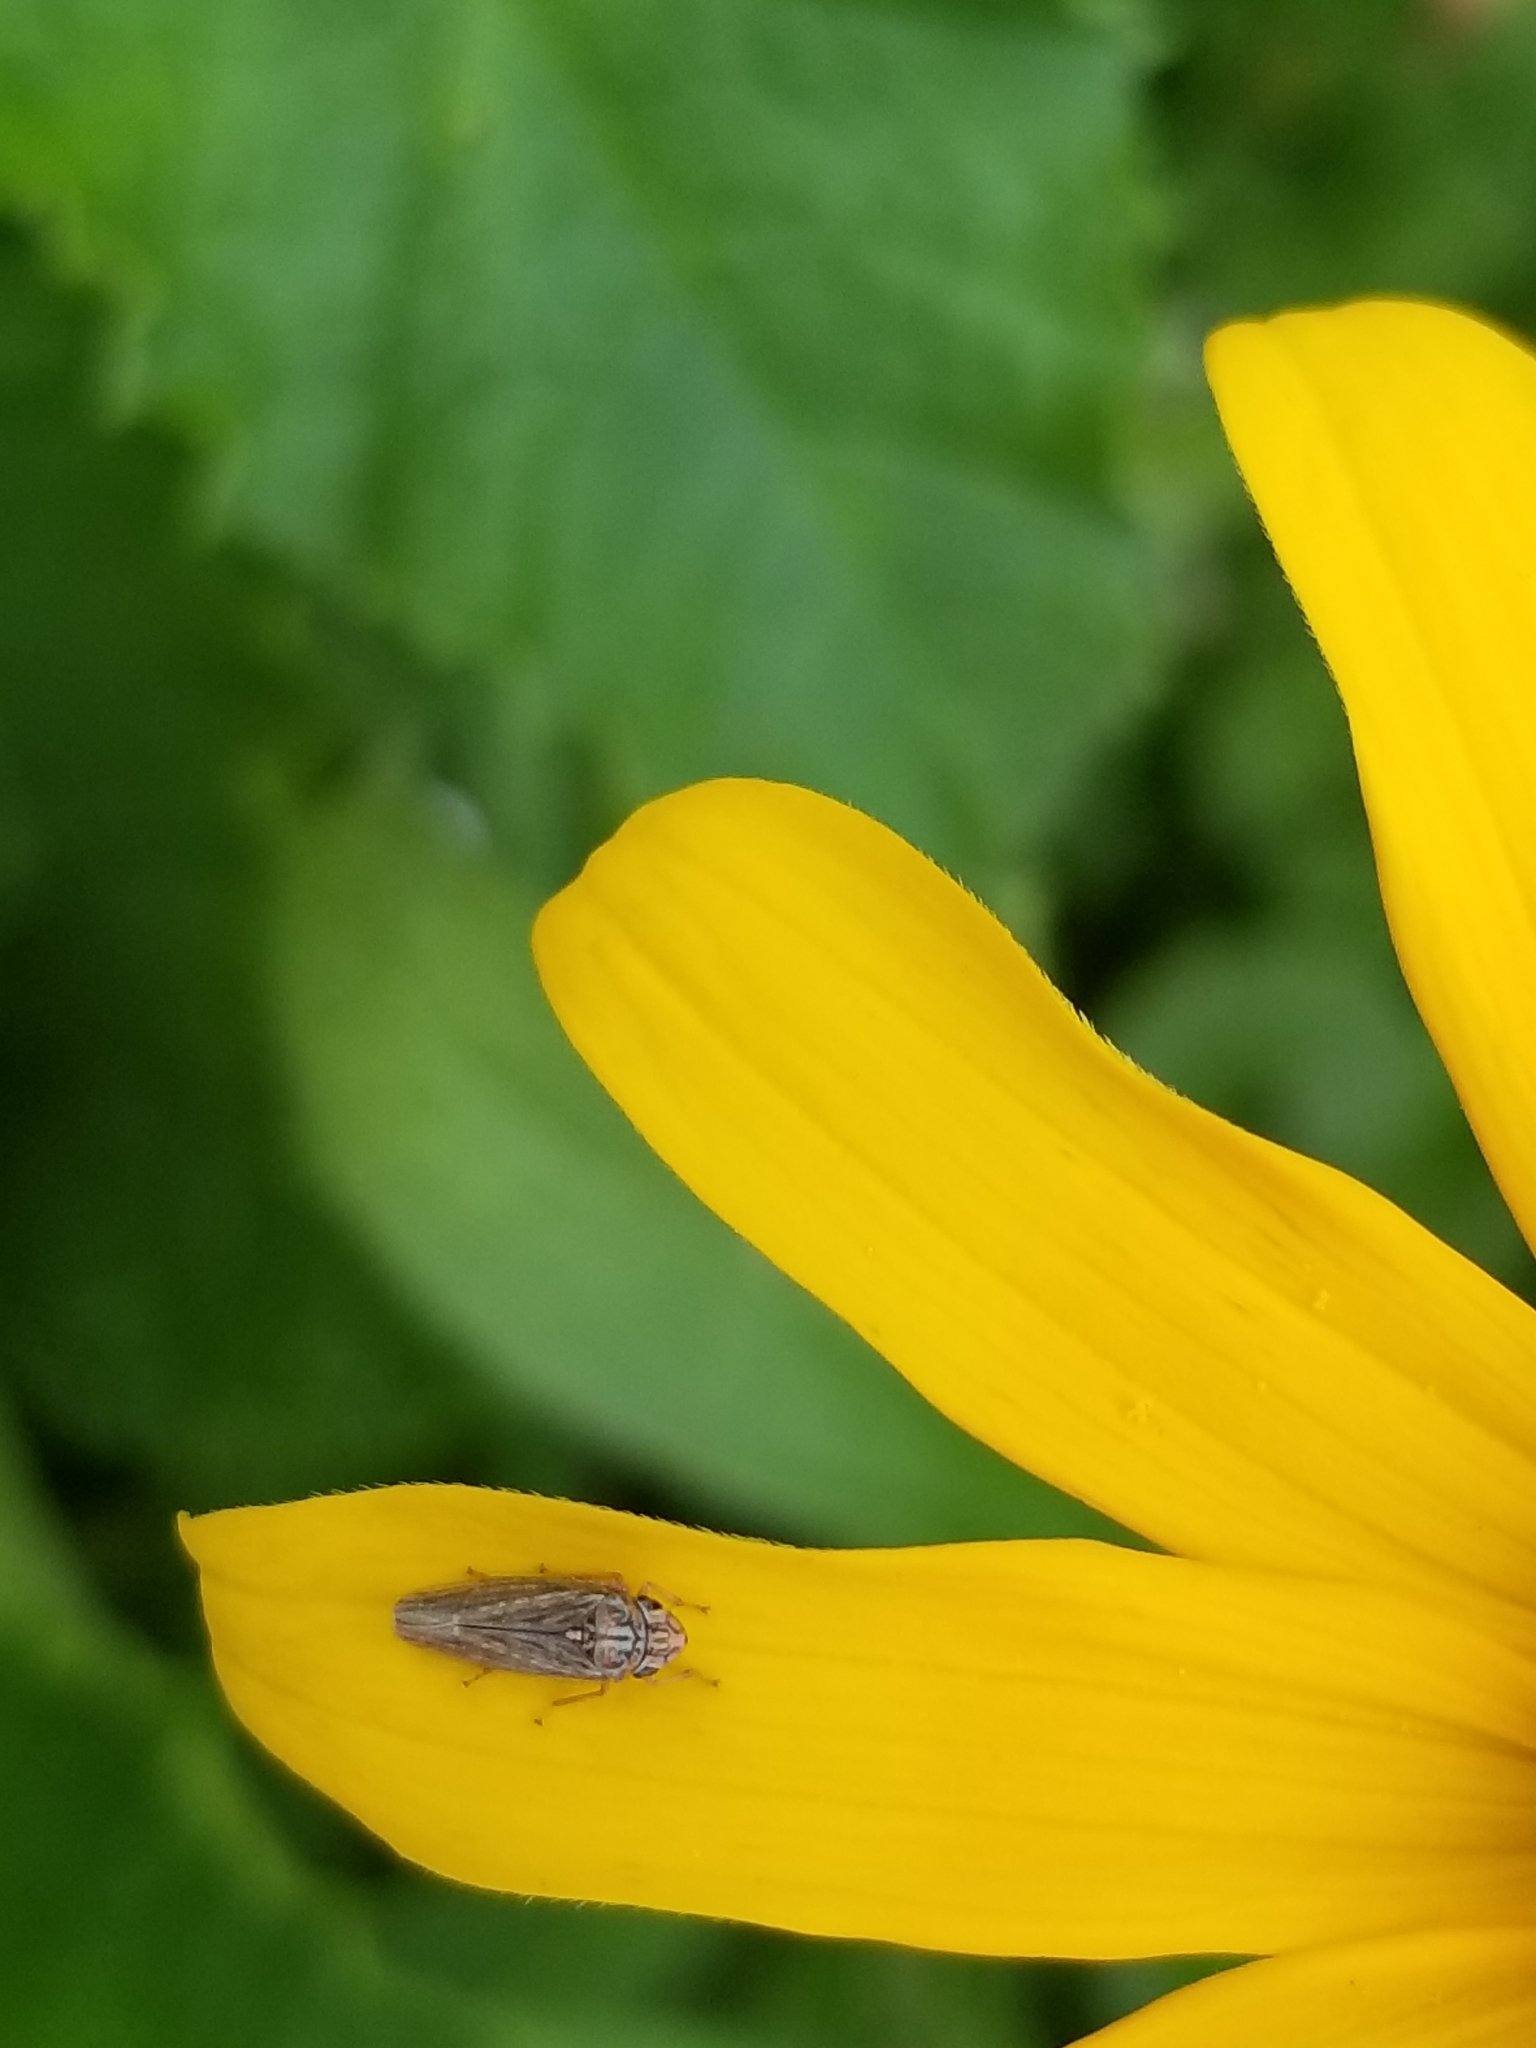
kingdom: Animalia
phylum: Arthropoda
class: Insecta
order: Hemiptera
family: Cicadellidae
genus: Neokolla
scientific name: Neokolla hieroglyphica
